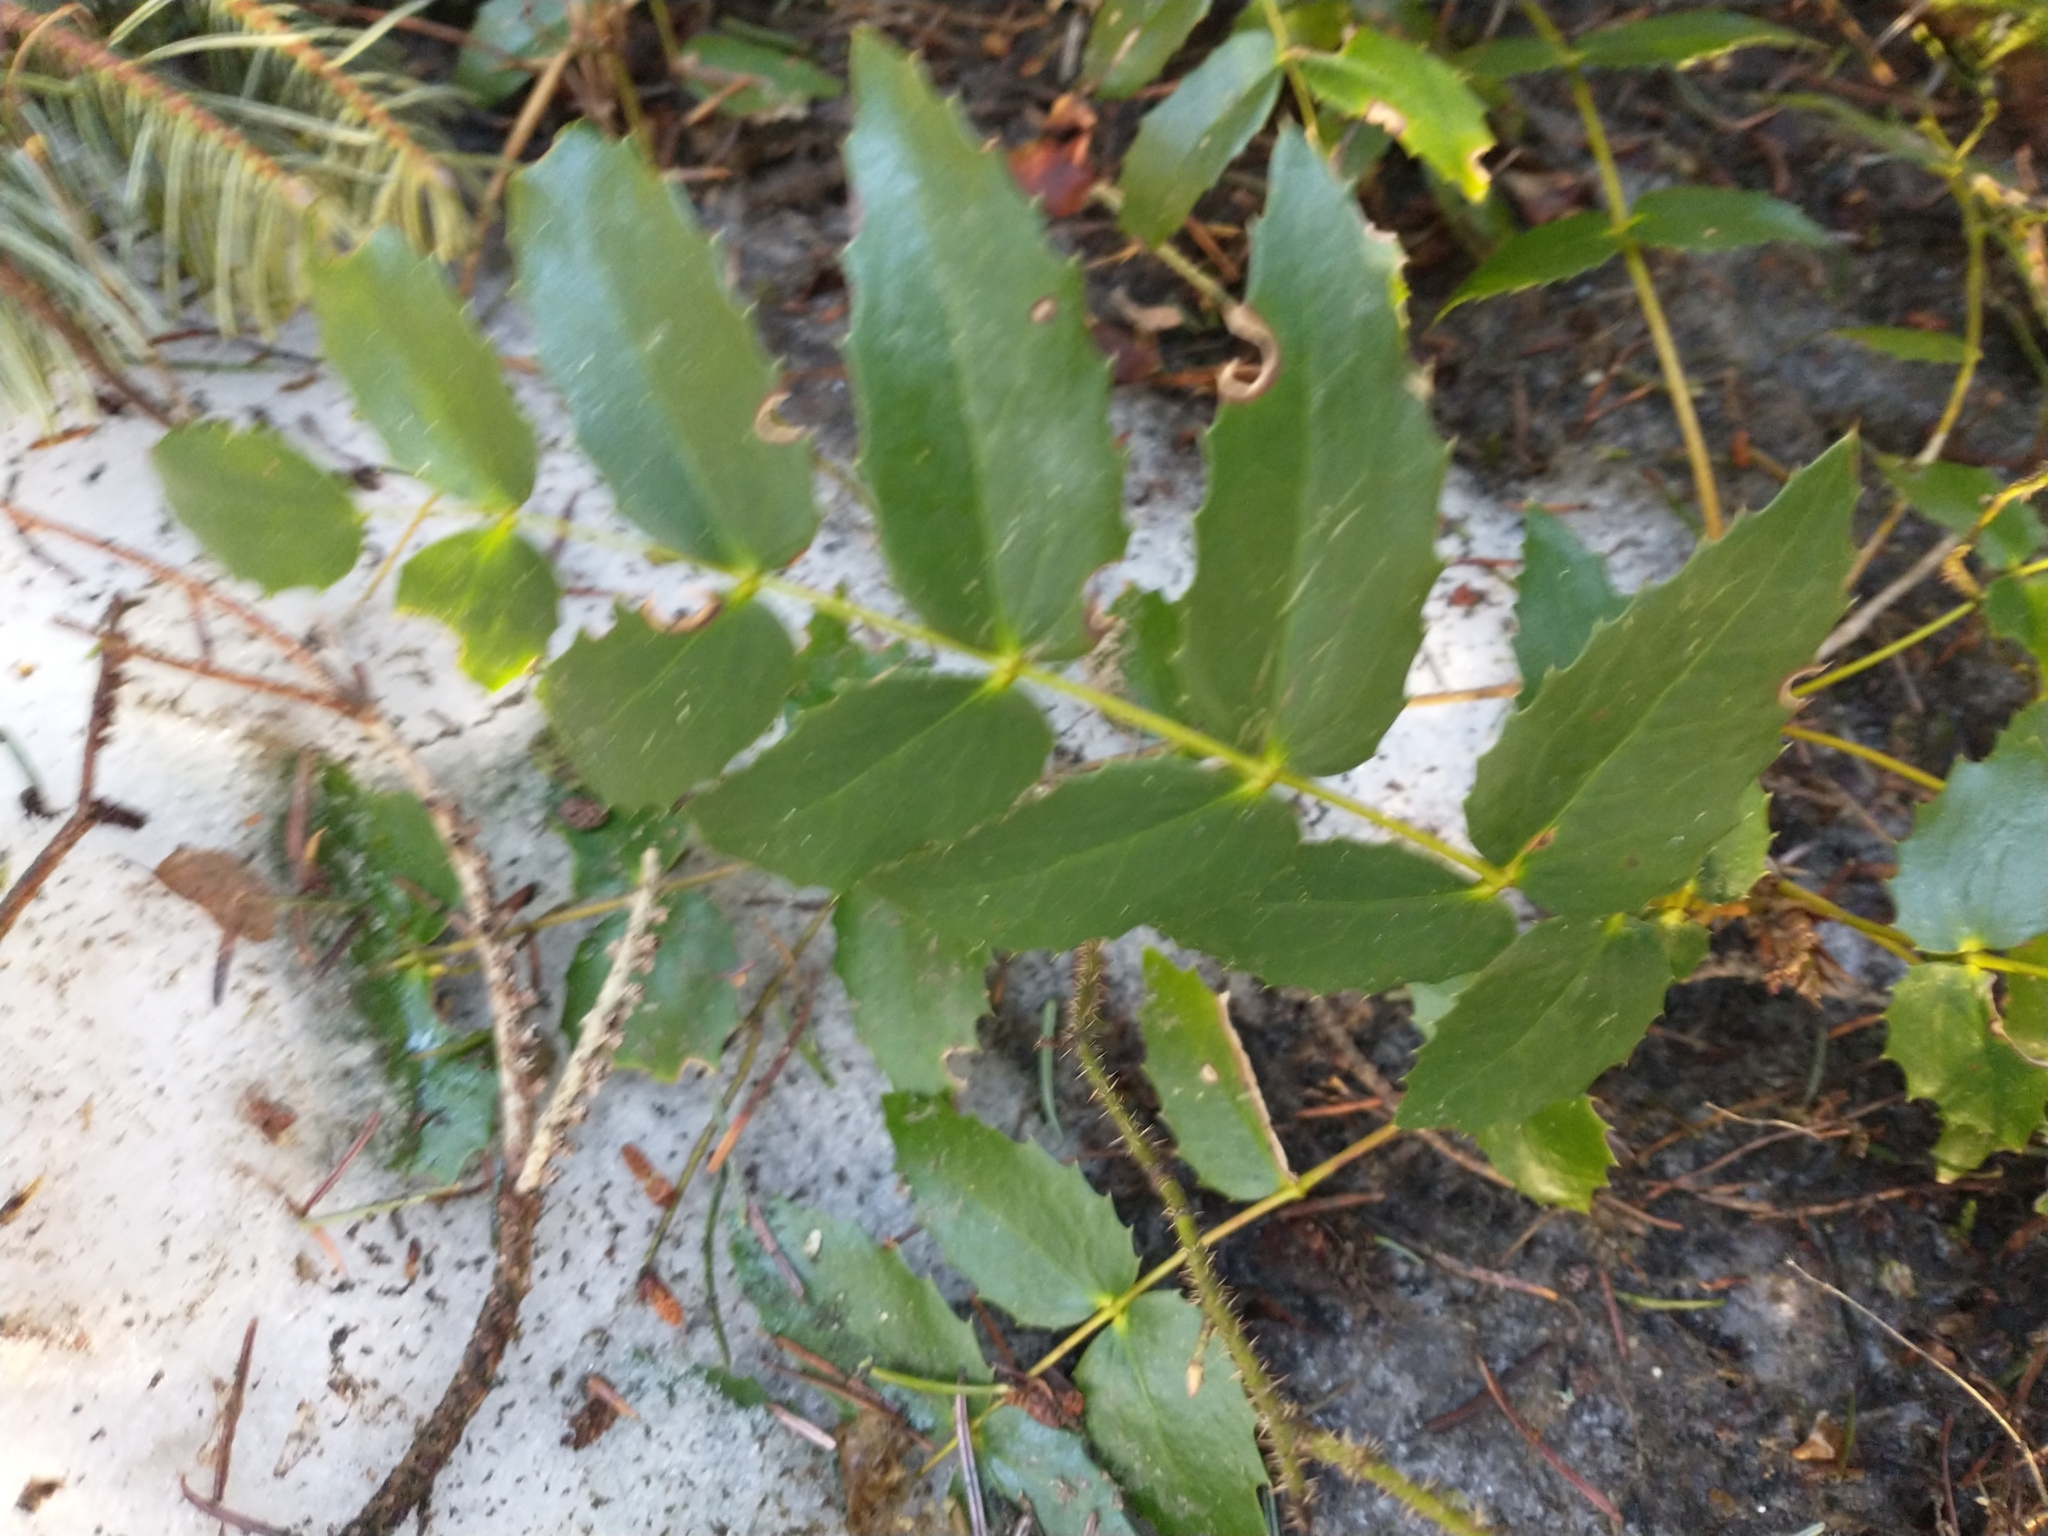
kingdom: Plantae
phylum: Tracheophyta
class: Magnoliopsida
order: Ranunculales
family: Berberidaceae
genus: Mahonia
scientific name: Mahonia nervosa
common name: Cascade oregon-grape
